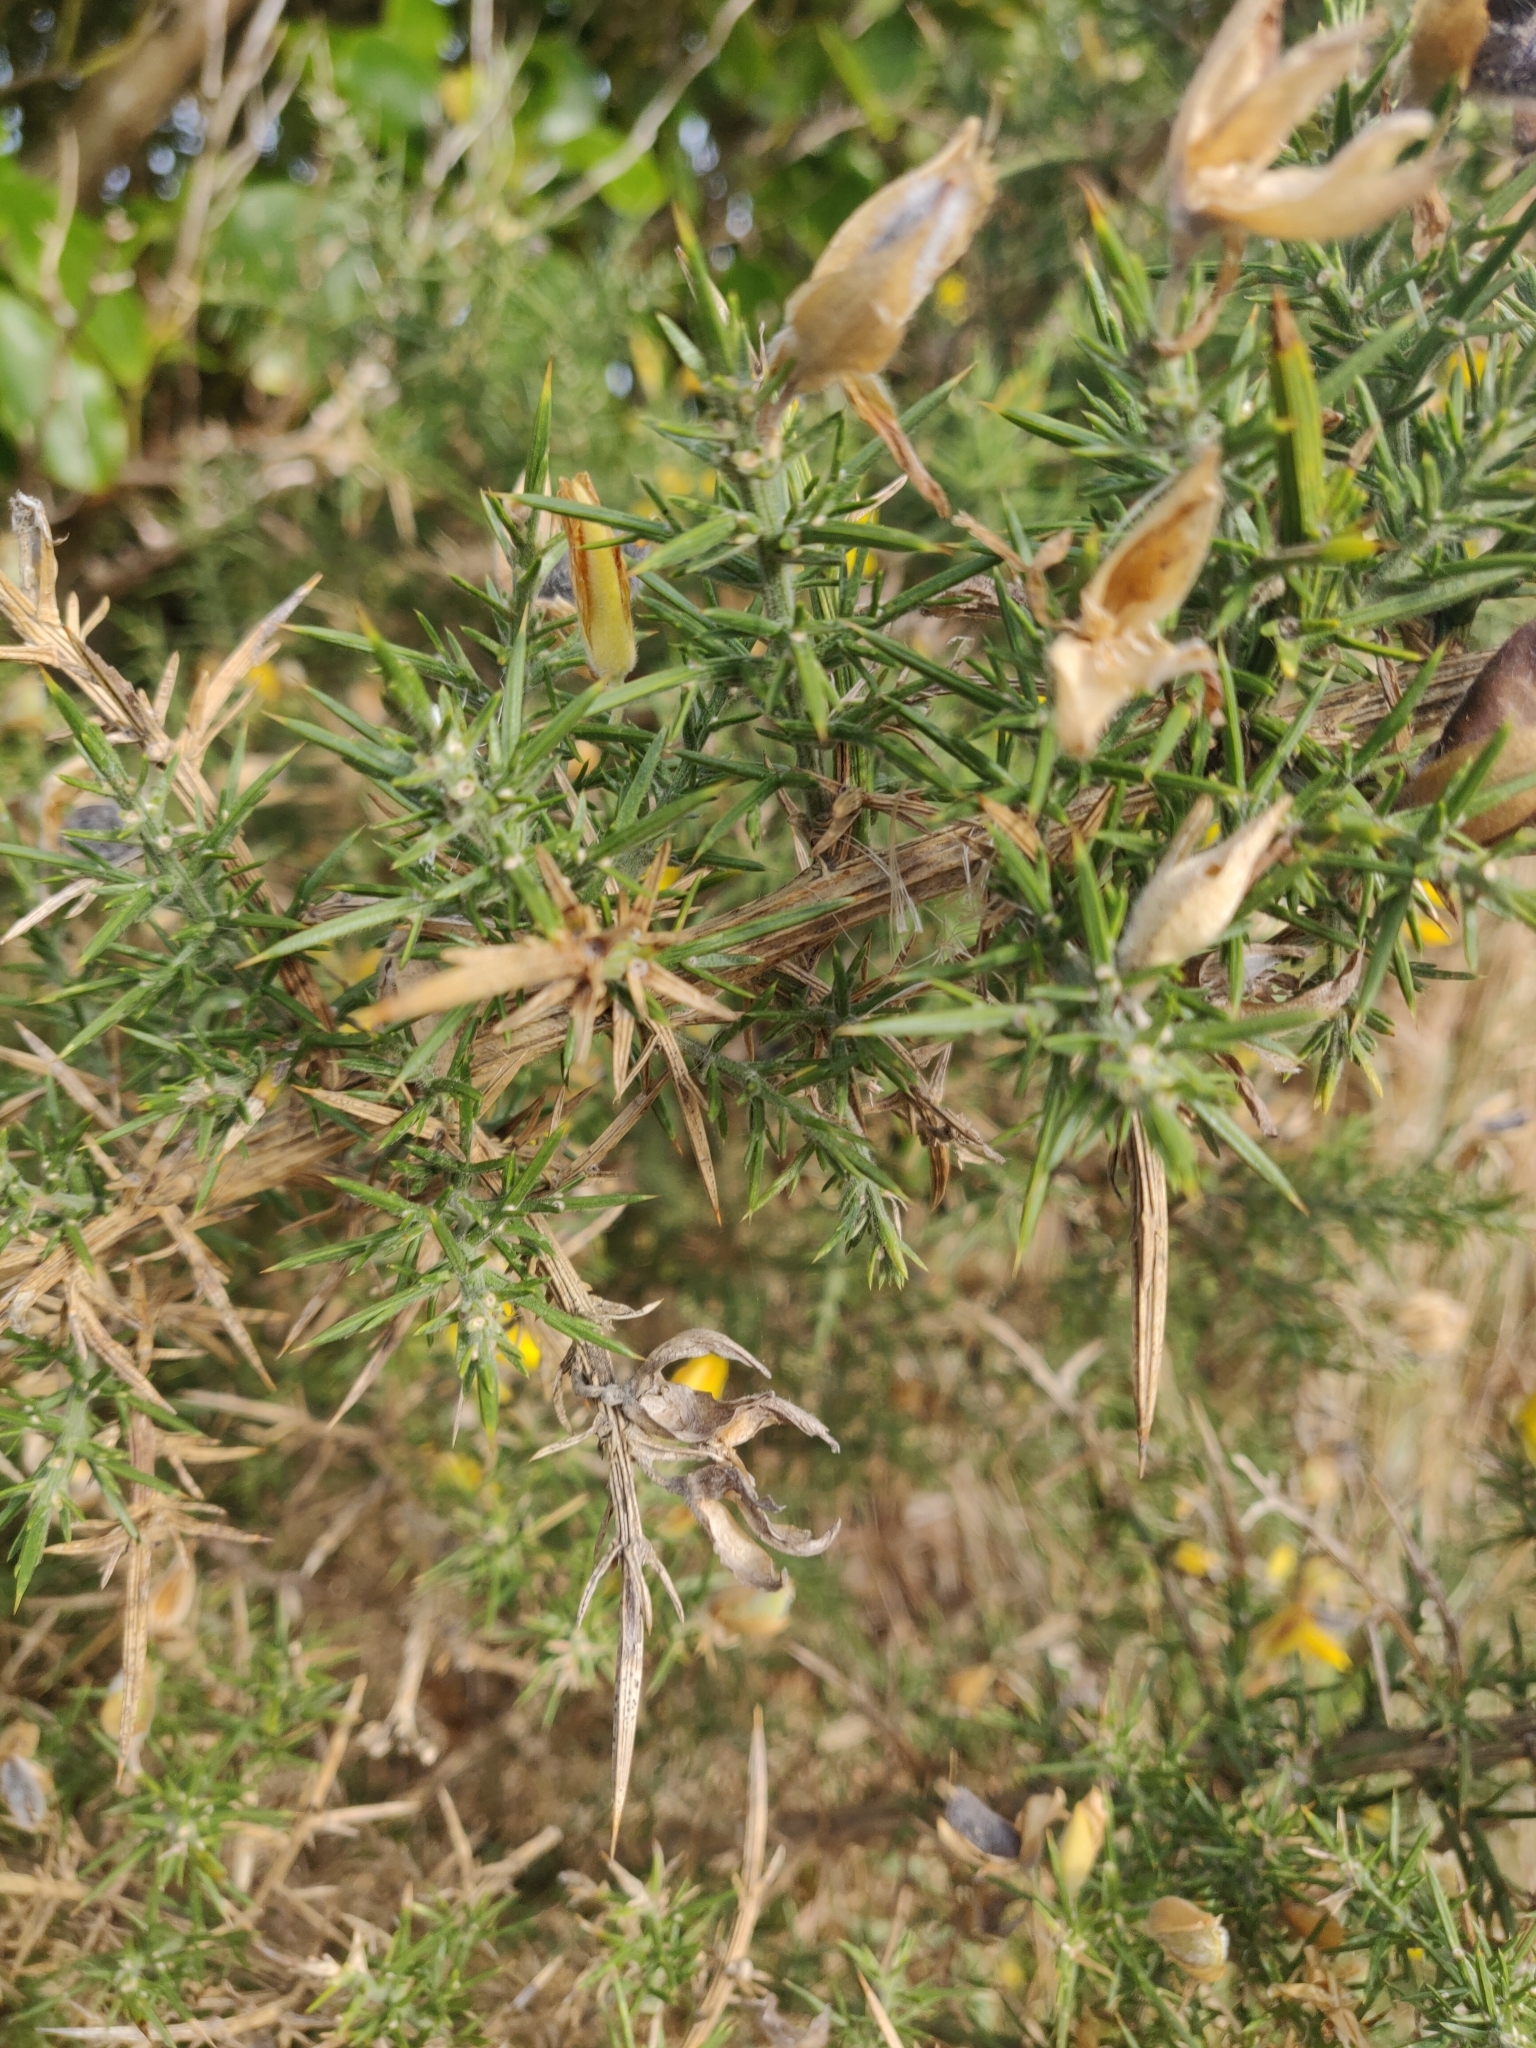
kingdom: Plantae
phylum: Tracheophyta
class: Magnoliopsida
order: Fabales
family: Fabaceae
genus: Ulex
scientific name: Ulex europaeus
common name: Common gorse
